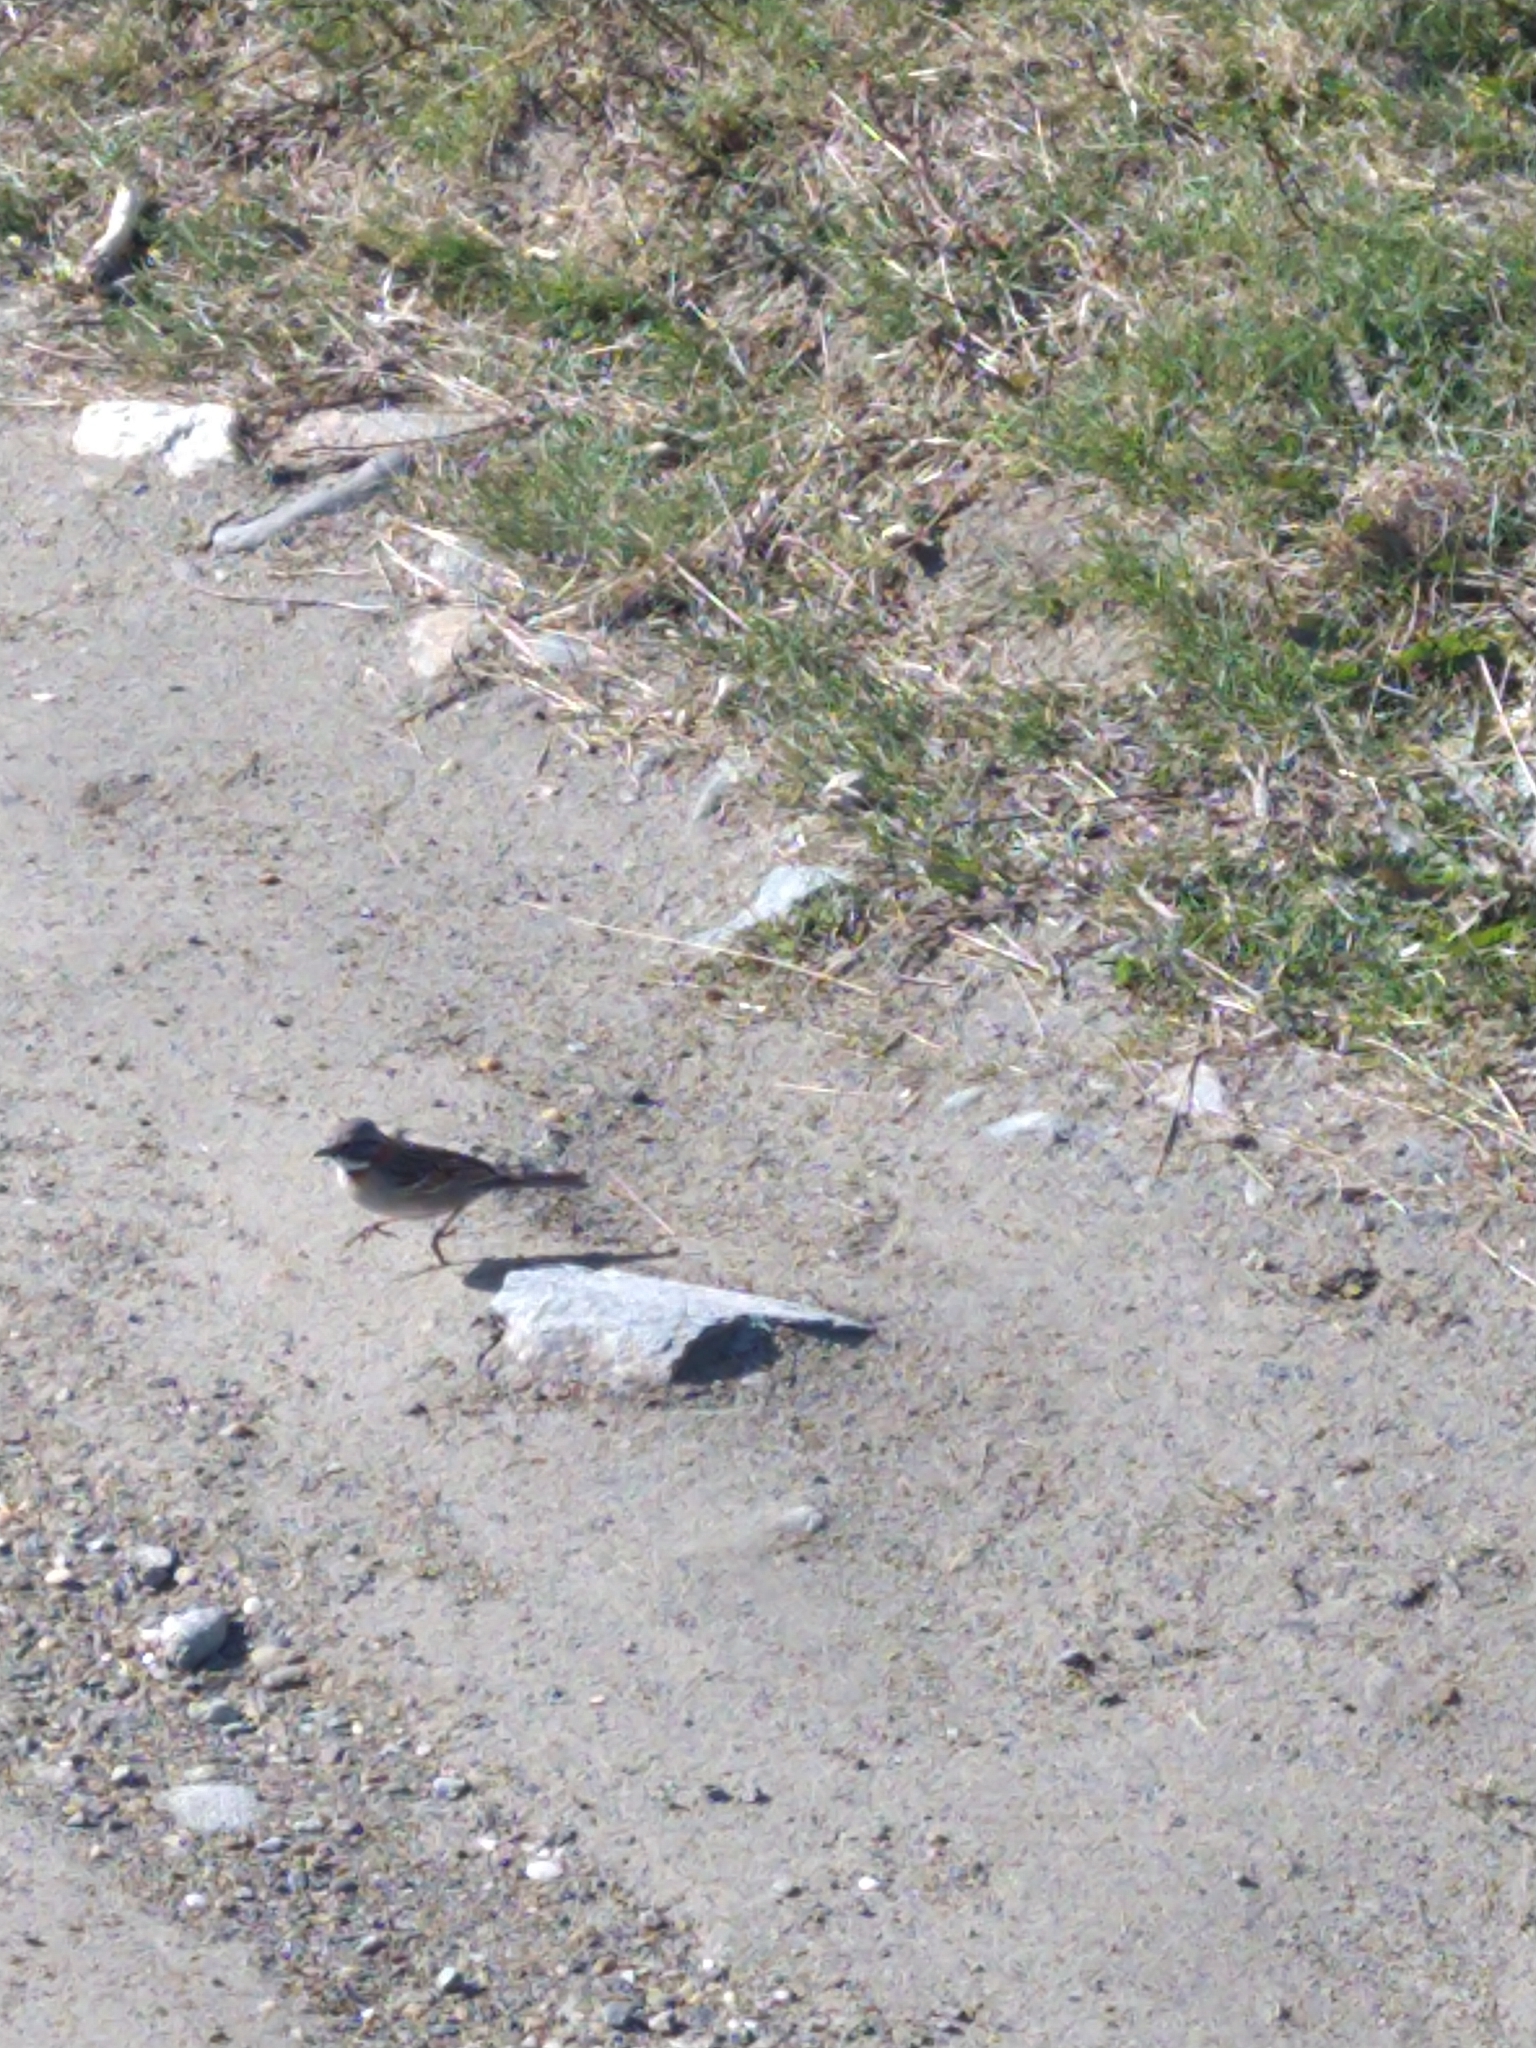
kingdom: Animalia
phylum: Chordata
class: Aves
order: Passeriformes
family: Passerellidae
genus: Zonotrichia
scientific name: Zonotrichia capensis
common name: Rufous-collared sparrow
